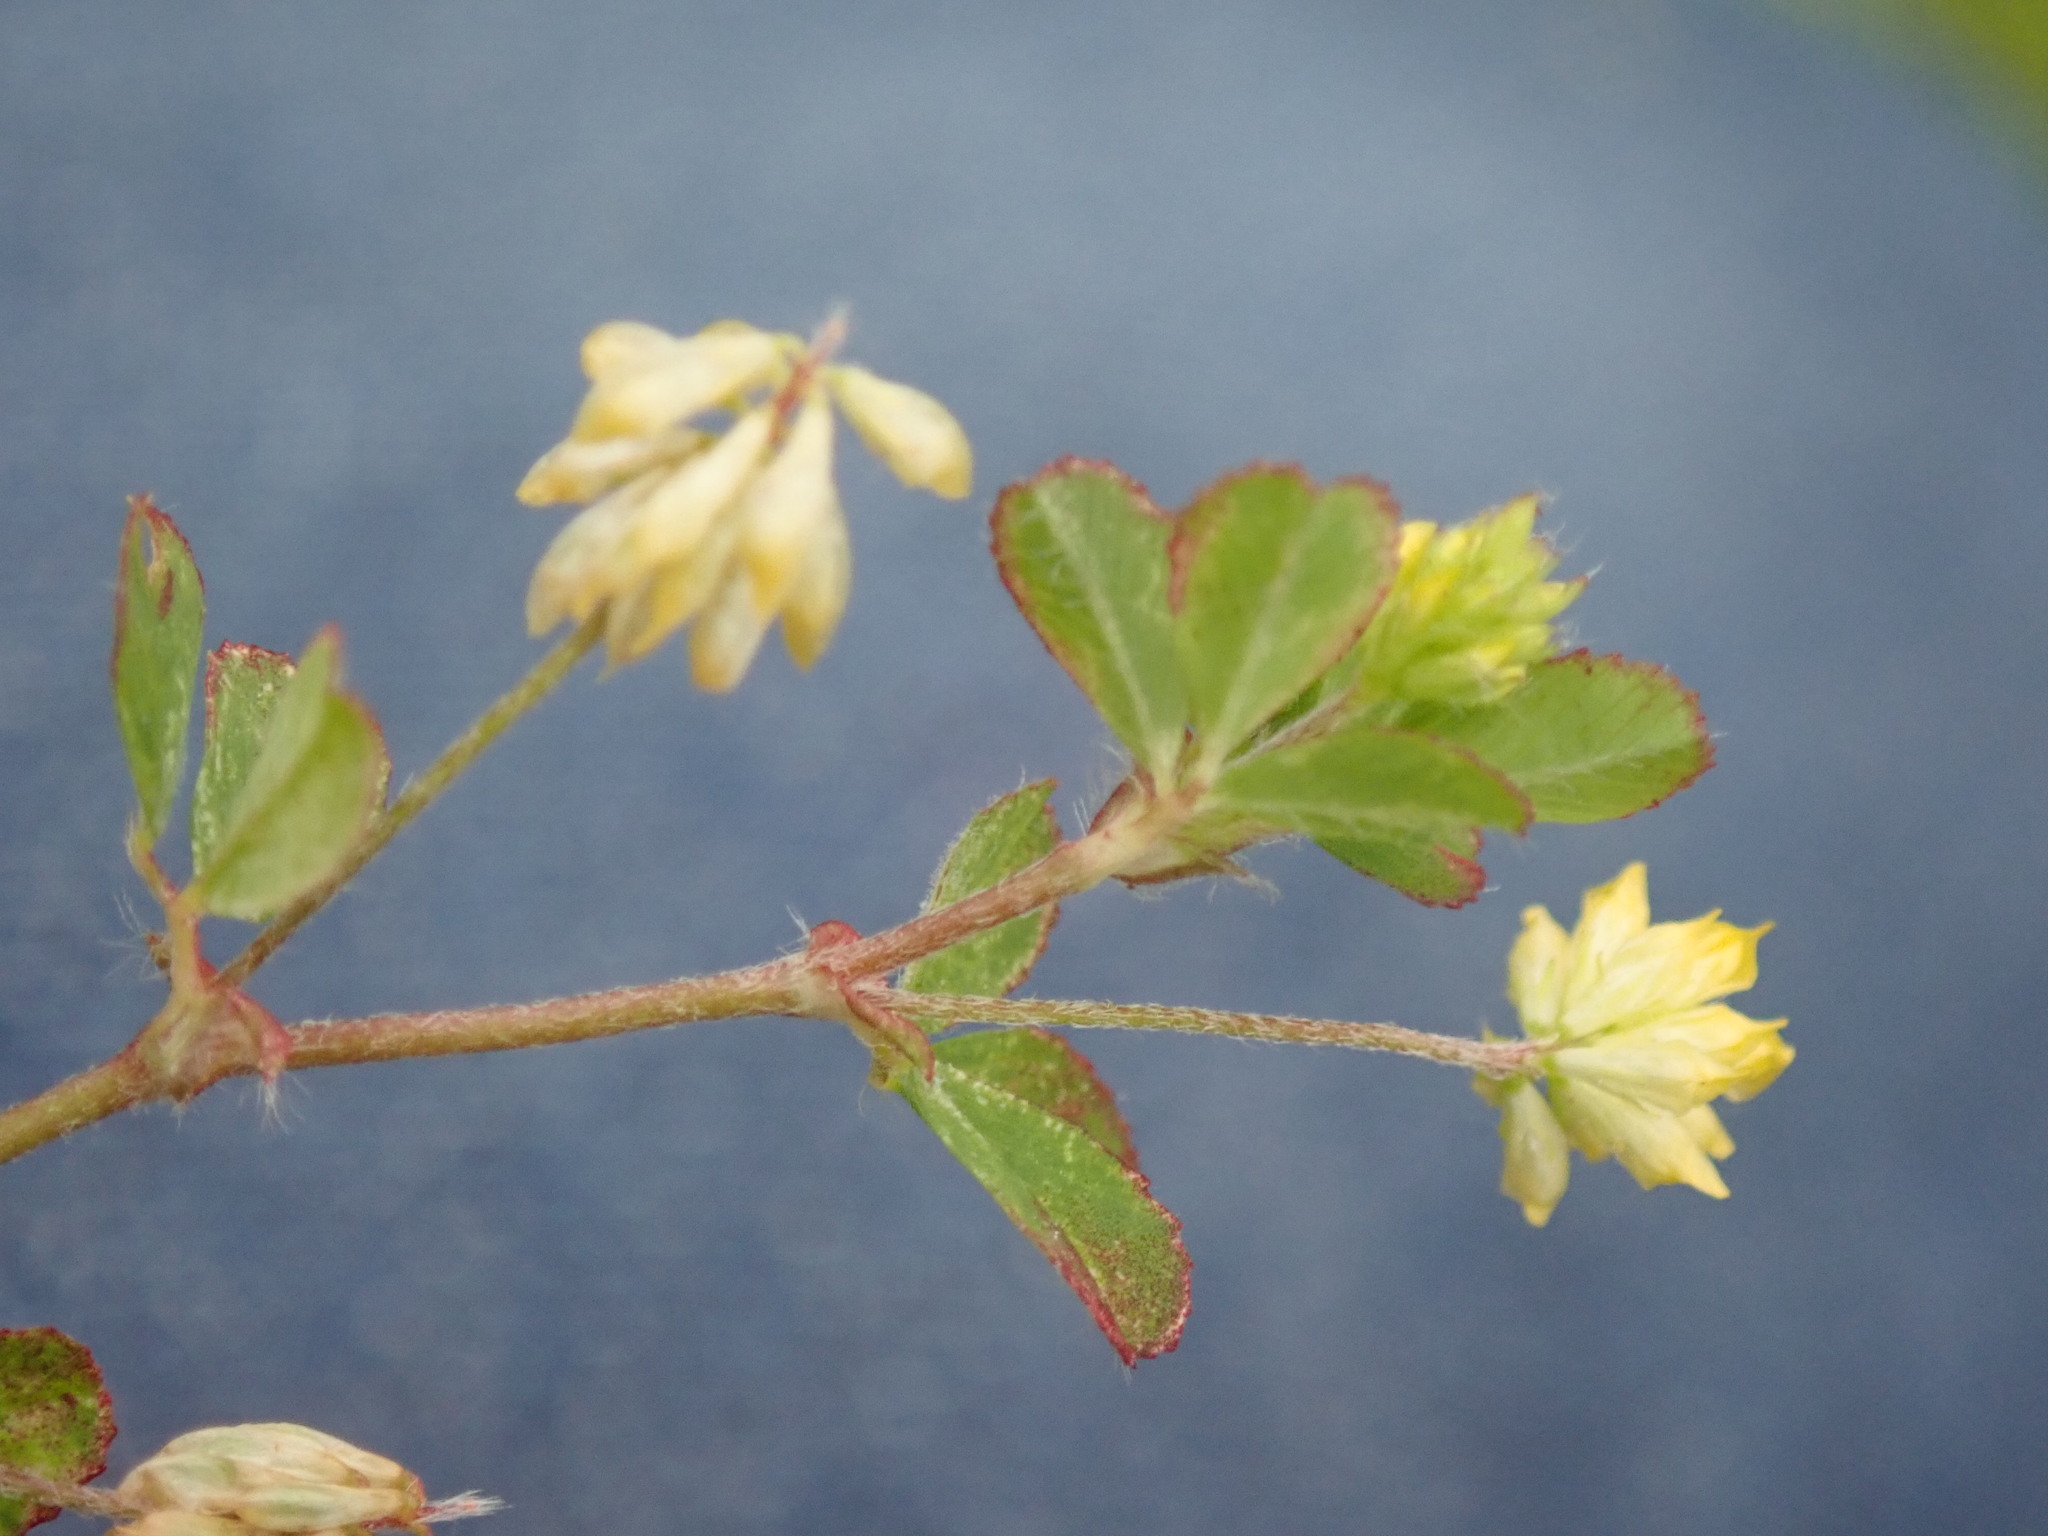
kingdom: Plantae
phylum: Tracheophyta
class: Magnoliopsida
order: Fabales
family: Fabaceae
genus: Trifolium
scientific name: Trifolium dubium
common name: Suckling clover
